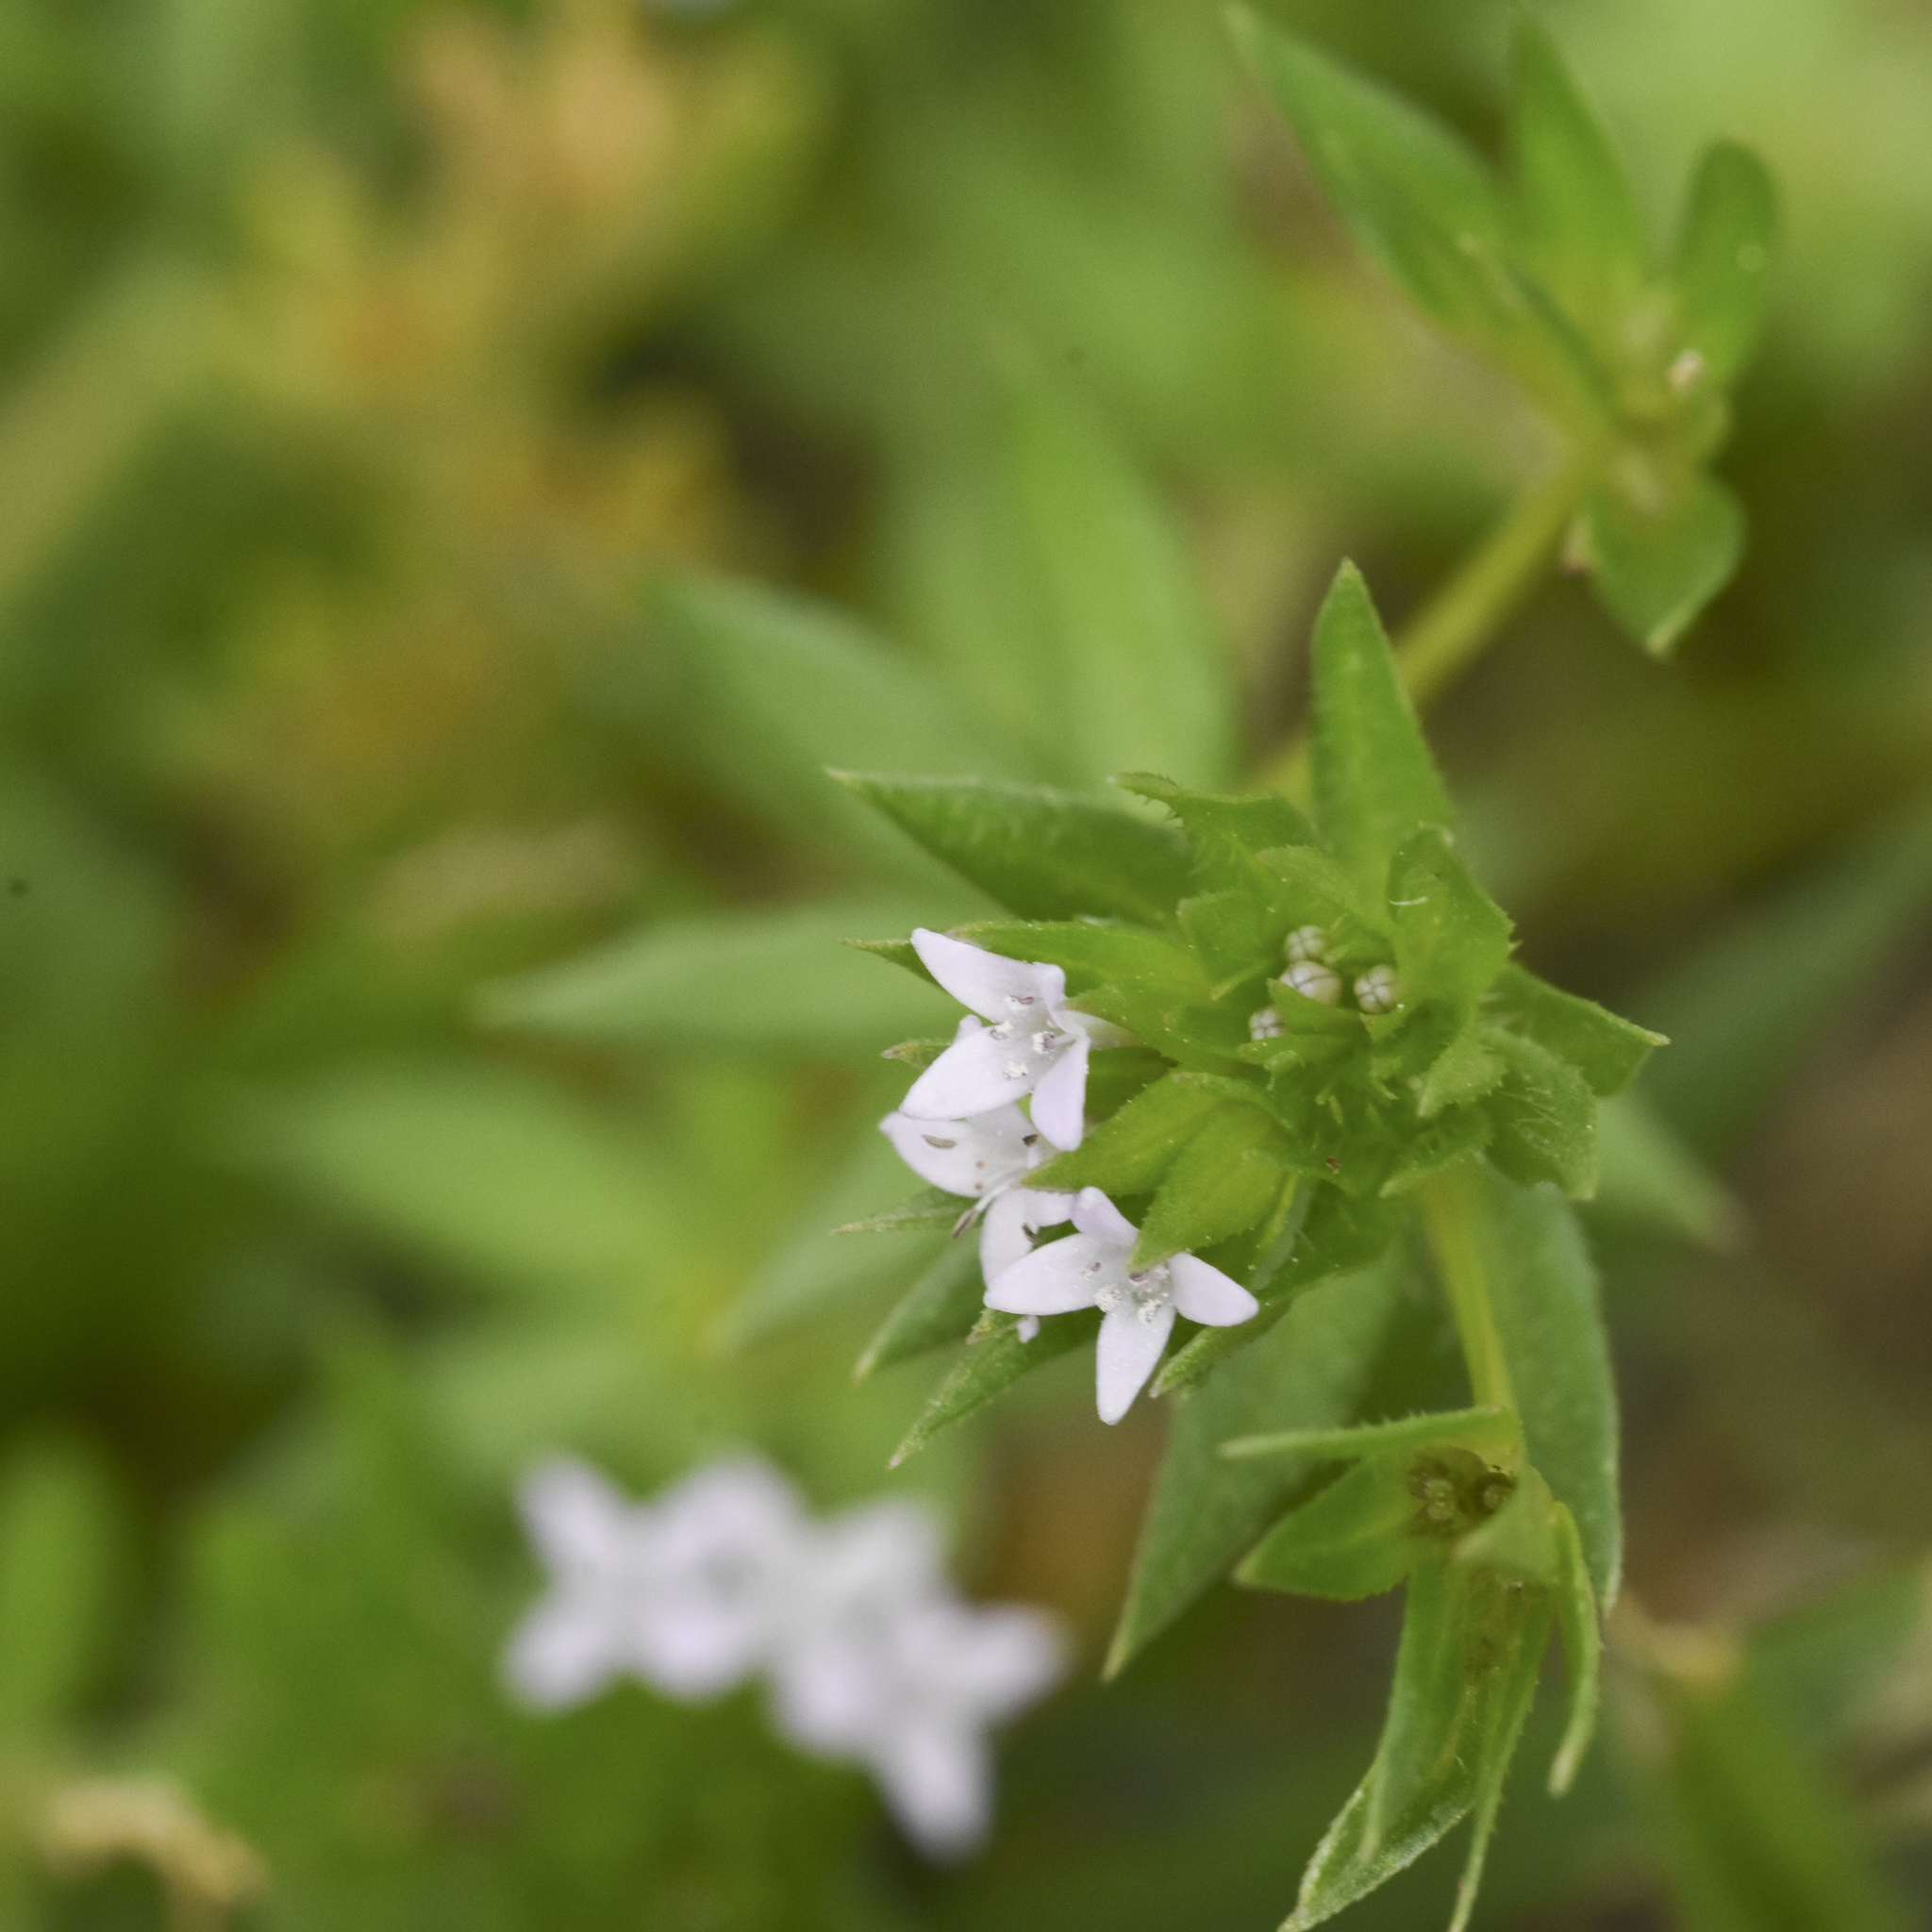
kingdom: Plantae
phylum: Tracheophyta
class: Magnoliopsida
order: Gentianales
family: Rubiaceae
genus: Sherardia
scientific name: Sherardia arvensis
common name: Field madder
